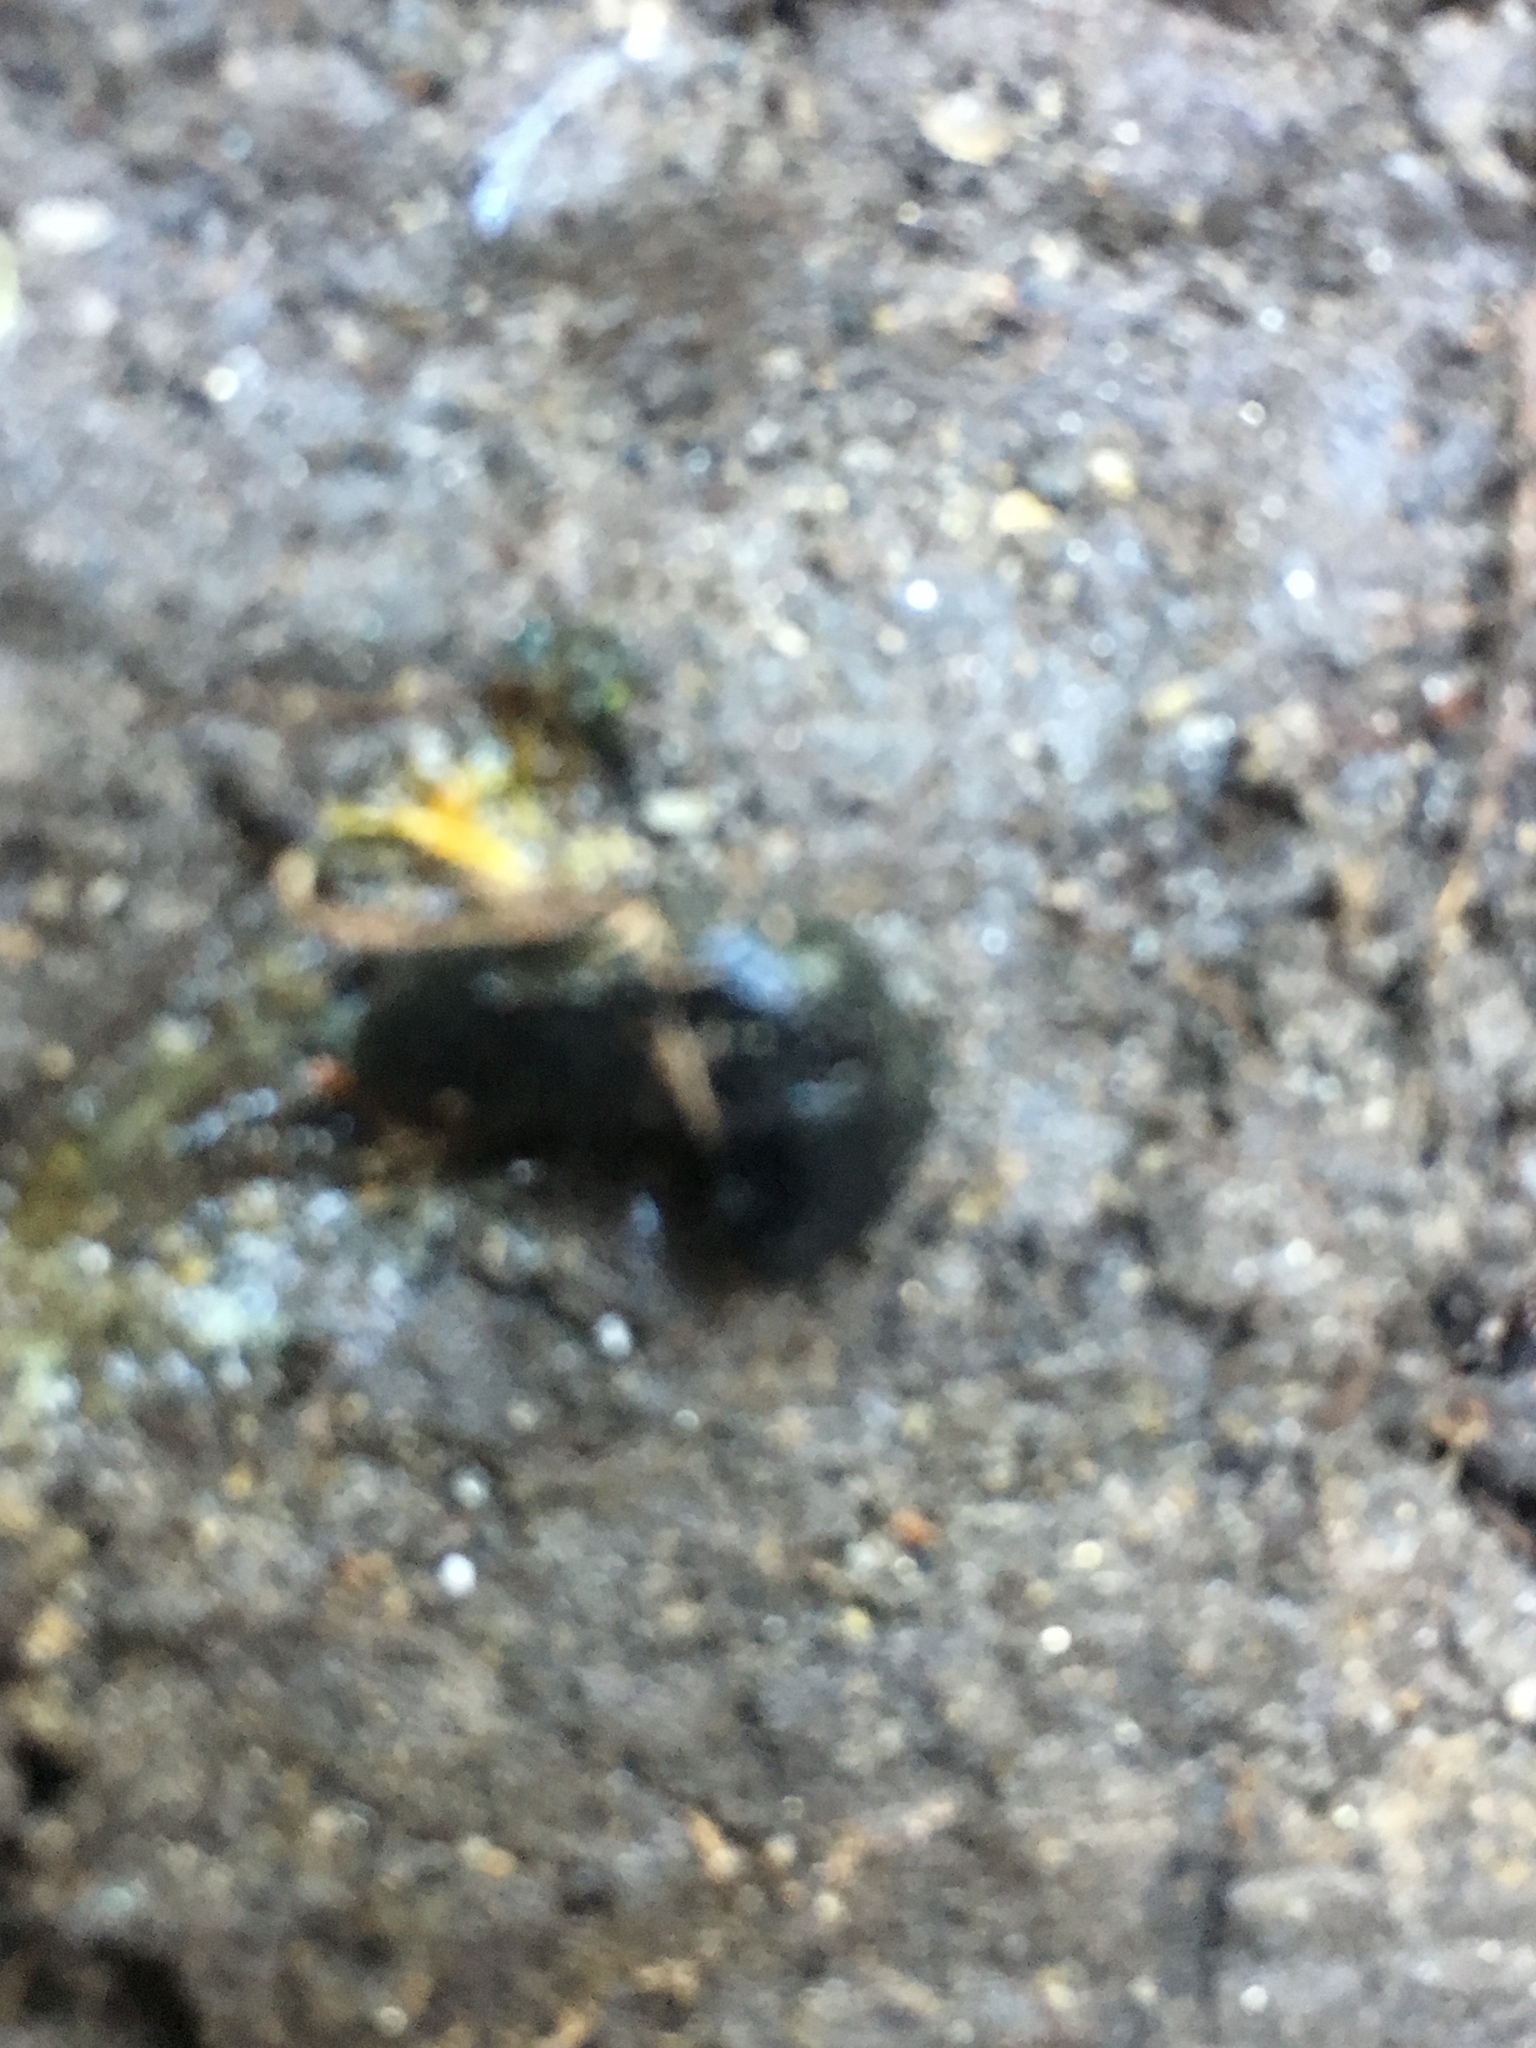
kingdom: Animalia
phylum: Mollusca
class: Gastropoda
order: Stylommatophora
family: Arionidae
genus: Arion
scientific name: Arion hortensis
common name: Garden arion
